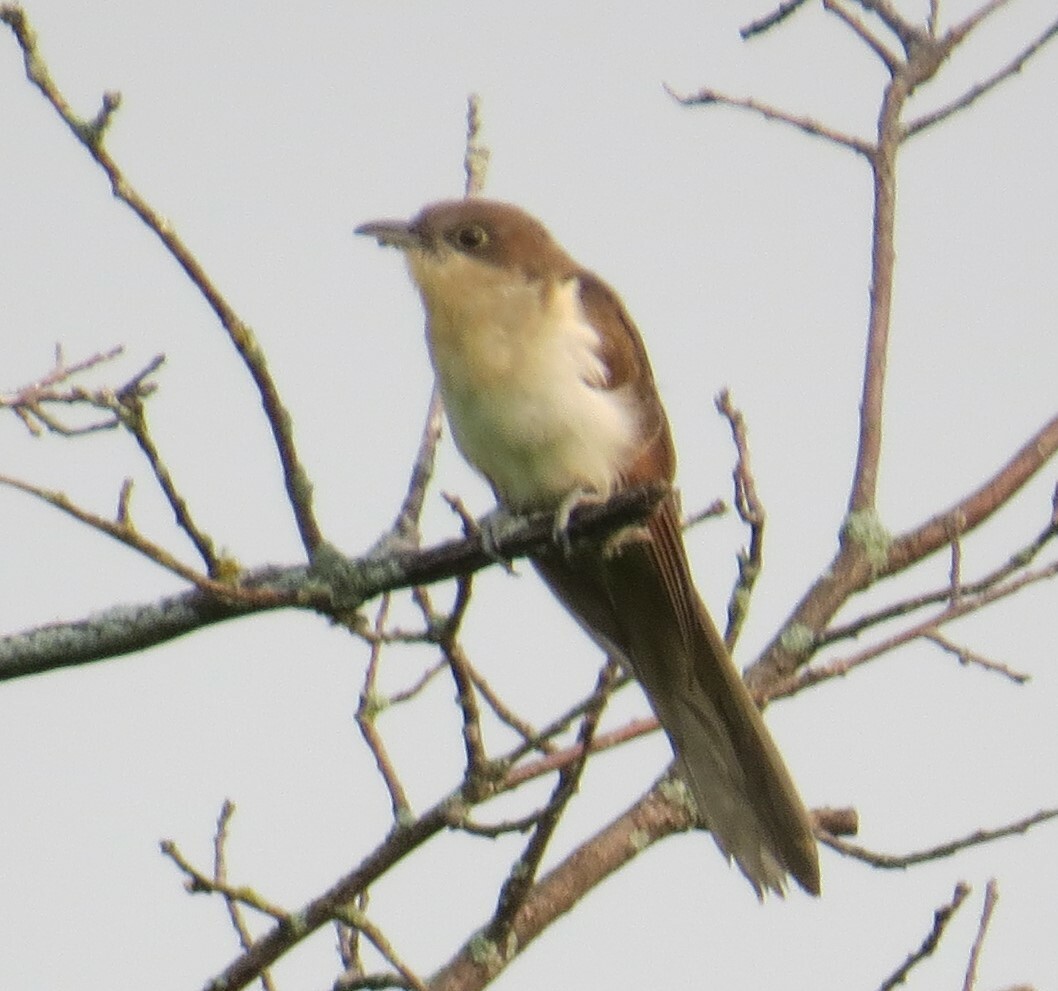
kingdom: Animalia
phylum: Chordata
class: Aves
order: Cuculiformes
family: Cuculidae
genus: Coccyzus
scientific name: Coccyzus erythropthalmus
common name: Black-billed cuckoo
